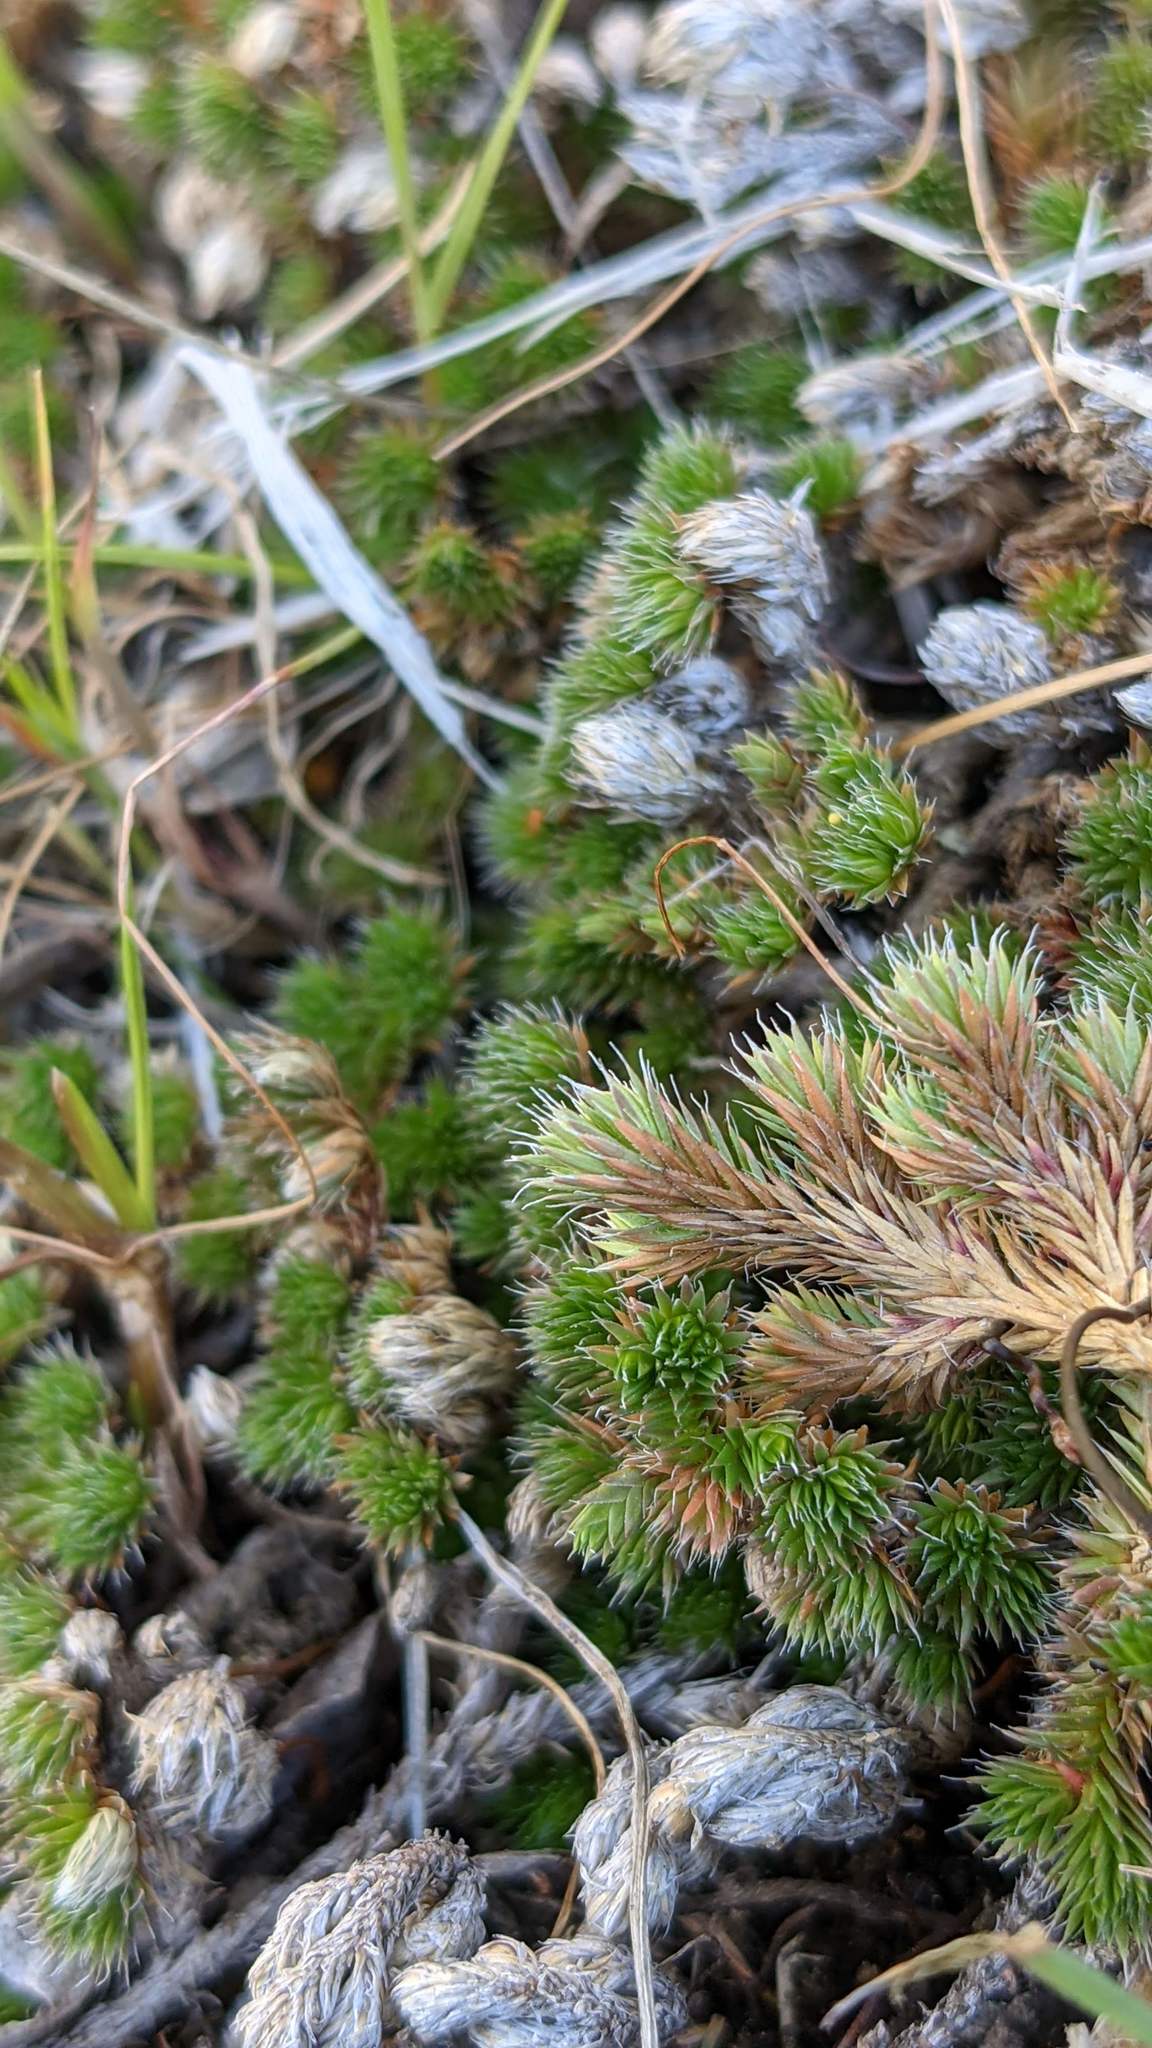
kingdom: Plantae
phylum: Tracheophyta
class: Lycopodiopsida
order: Selaginellales
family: Selaginellaceae
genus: Selaginella
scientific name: Selaginella hansenii
